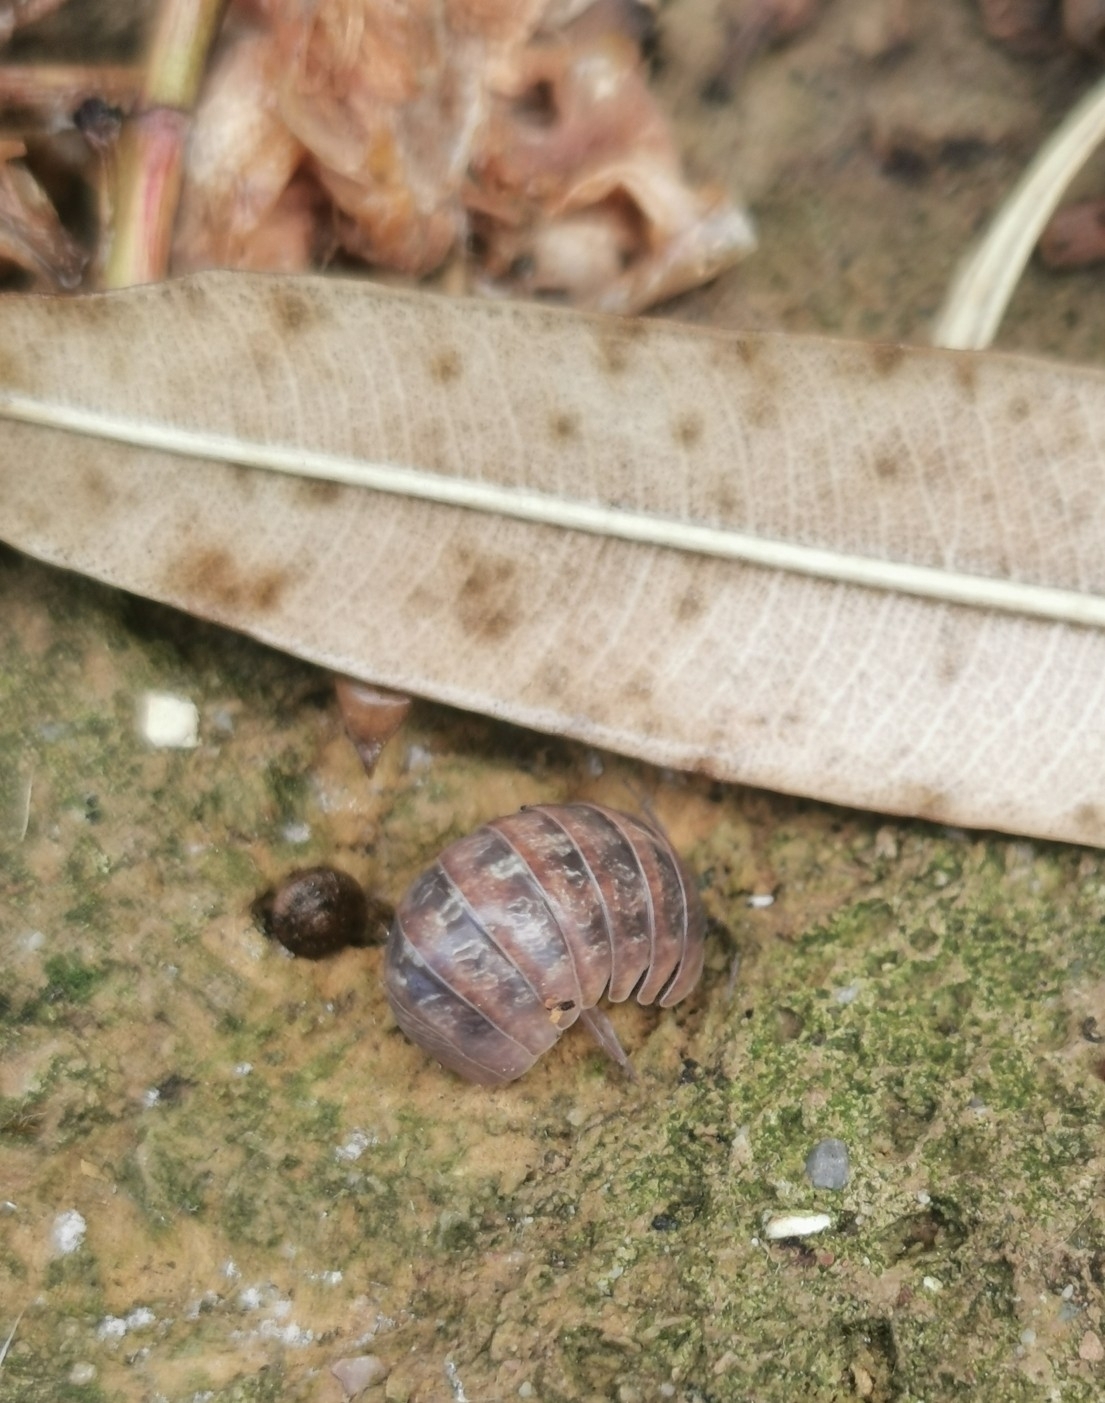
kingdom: Animalia
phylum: Arthropoda
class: Malacostraca
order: Isopoda
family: Armadillidiidae
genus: Armadillidium
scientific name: Armadillidium sordidum
